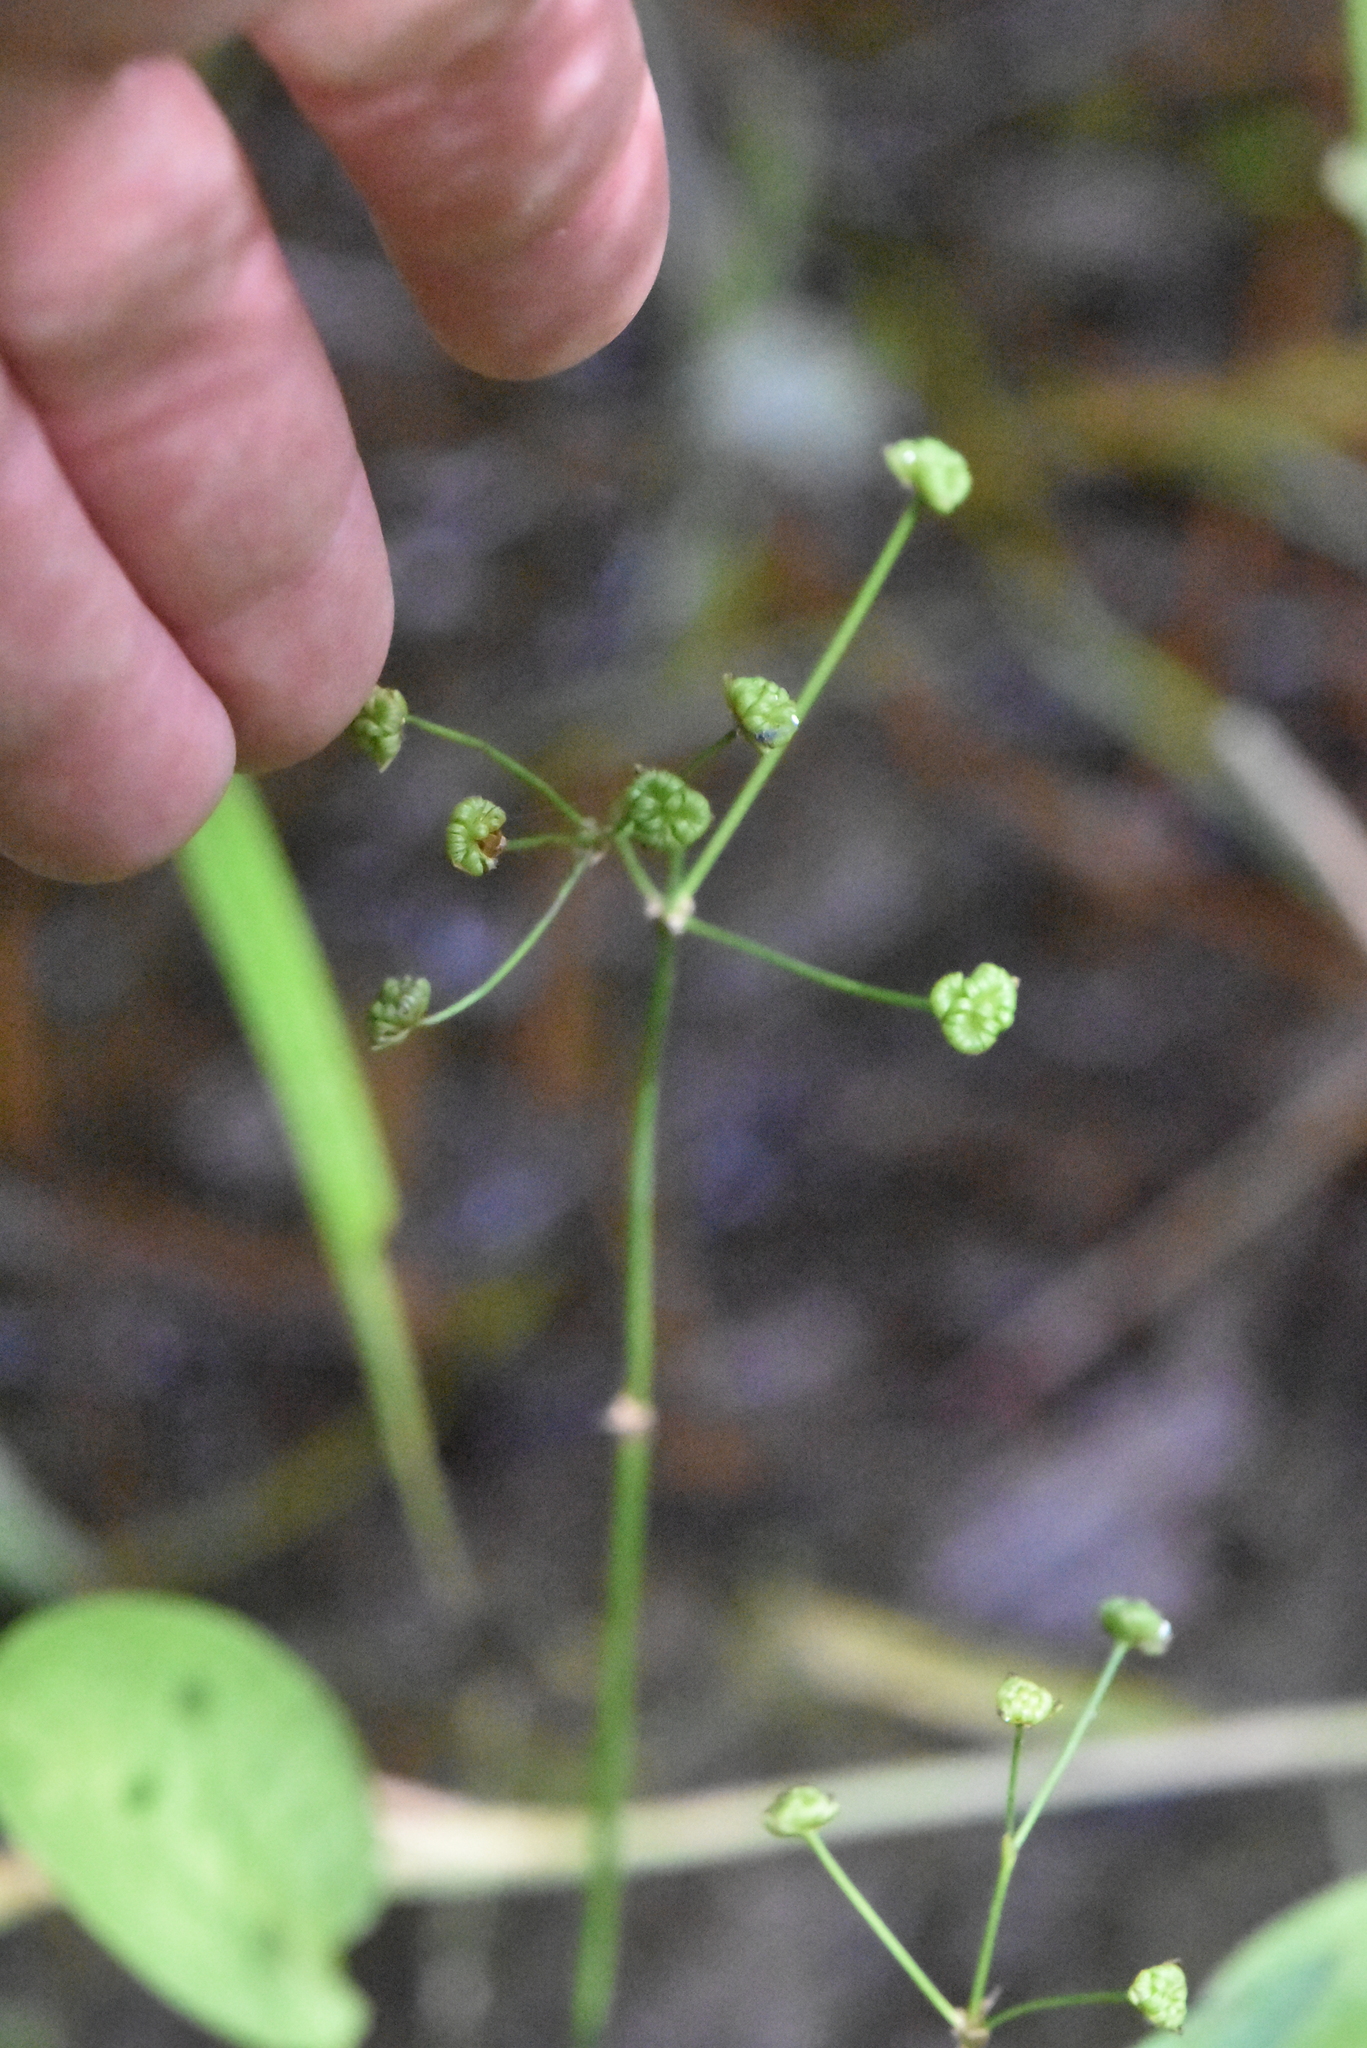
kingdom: Plantae
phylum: Tracheophyta
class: Liliopsida
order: Alismatales
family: Alismataceae
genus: Alisma
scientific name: Alisma plantago-aquatica
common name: Water-plantain
